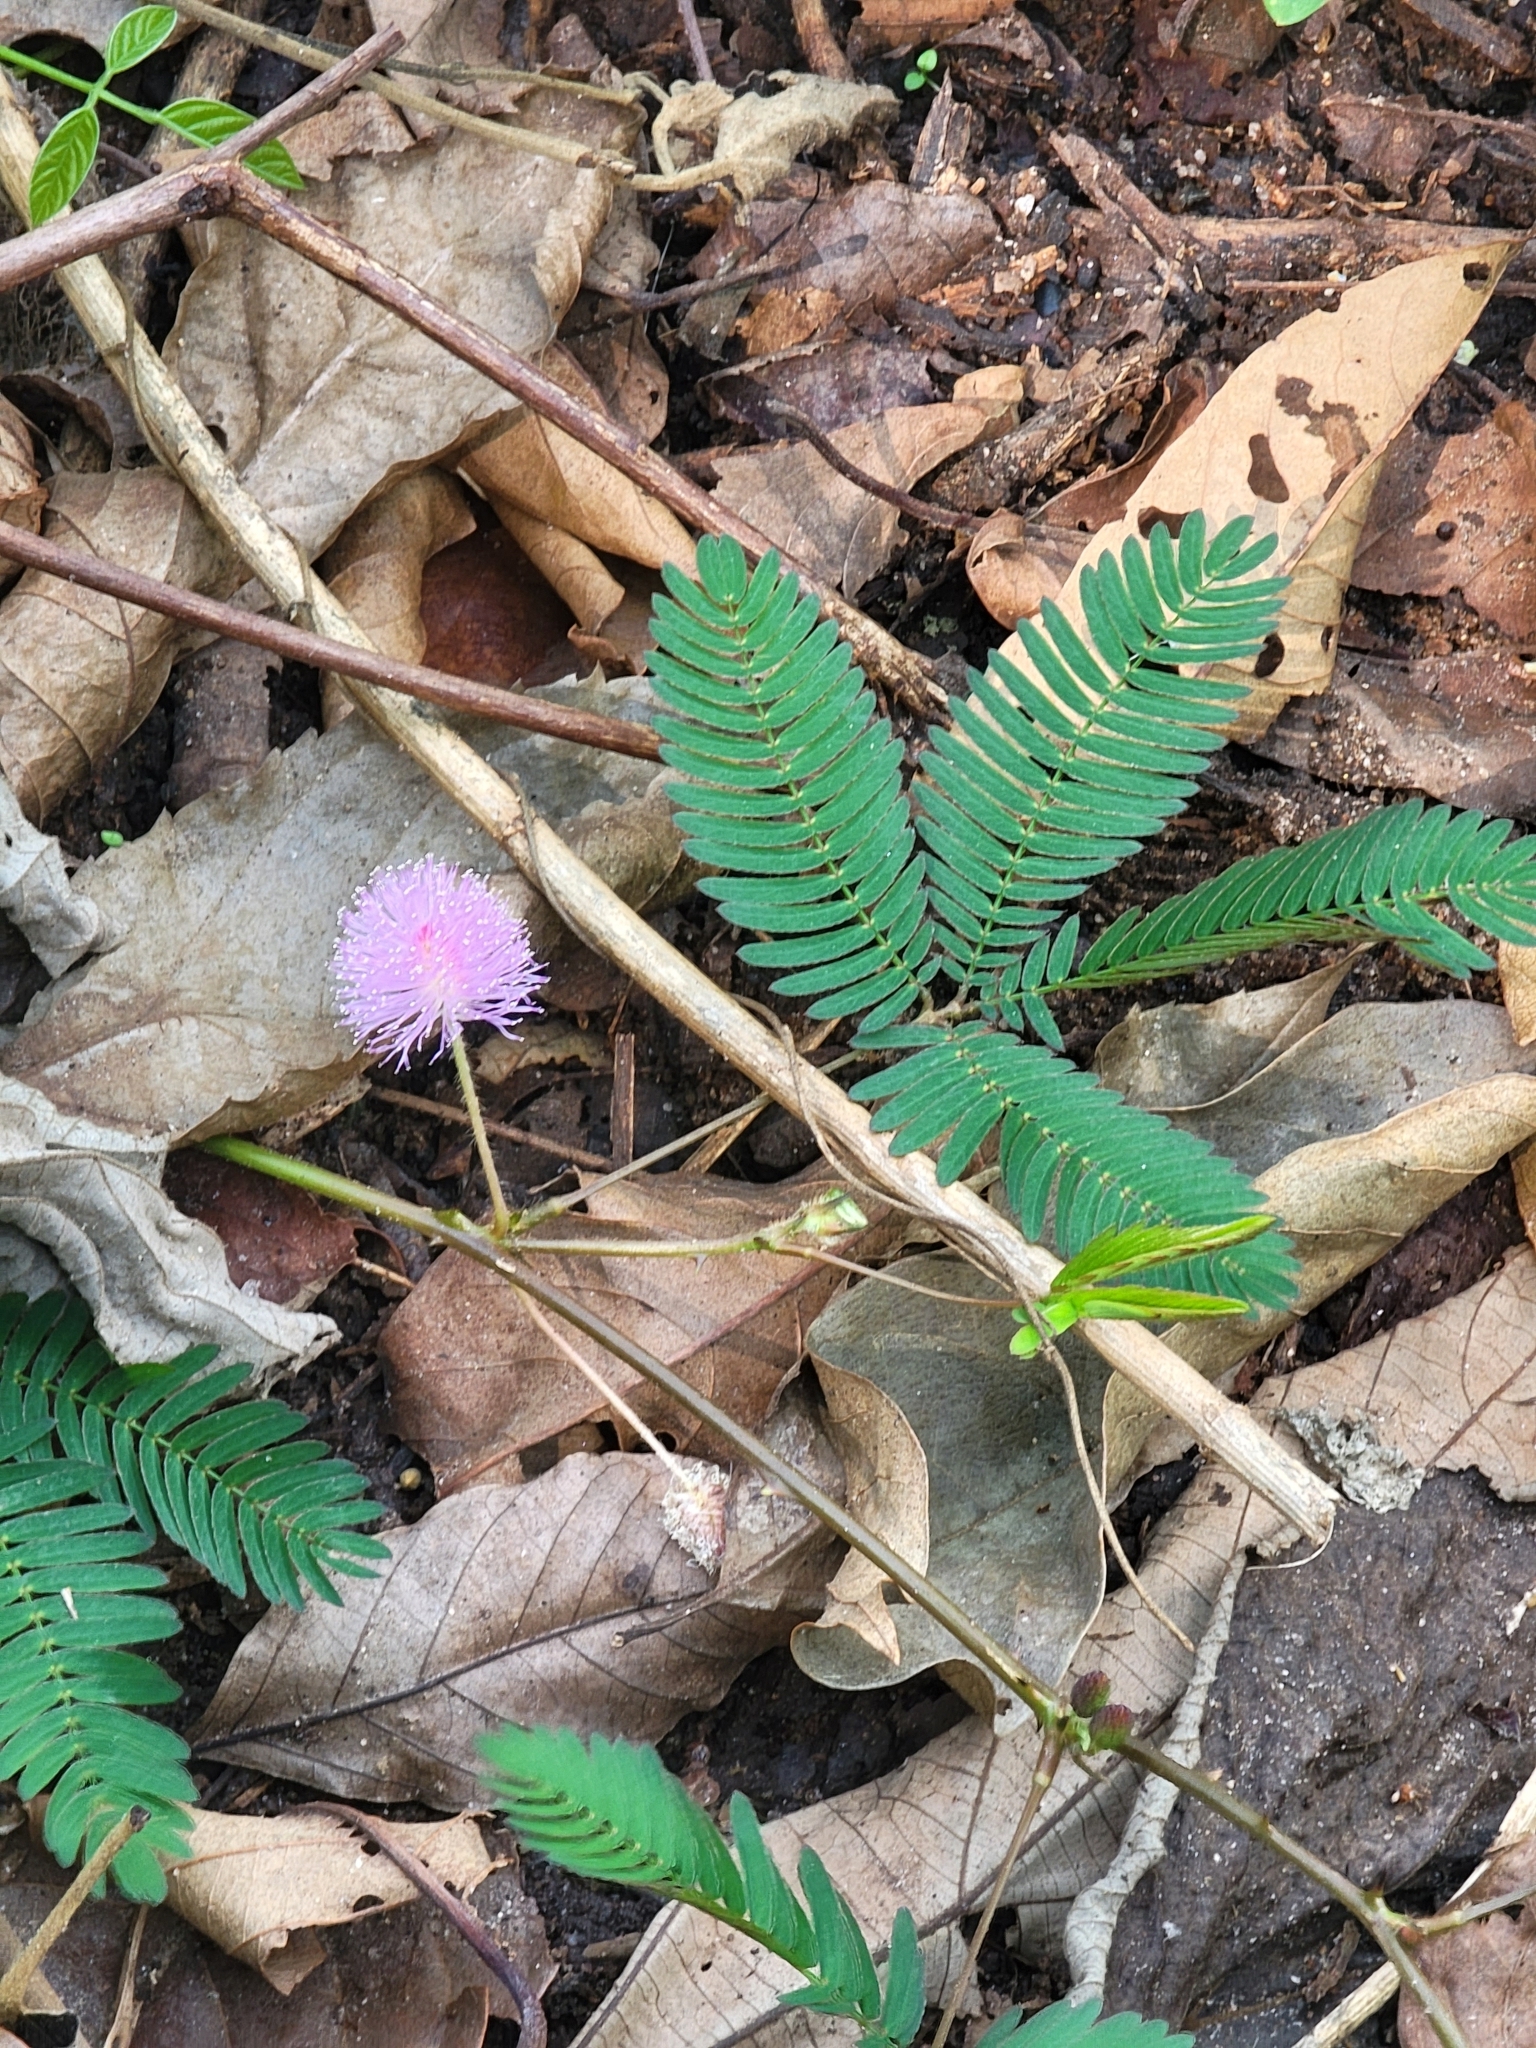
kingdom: Plantae
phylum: Tracheophyta
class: Magnoliopsida
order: Fabales
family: Fabaceae
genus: Mimosa
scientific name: Mimosa pudica
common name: Sensitive plant
